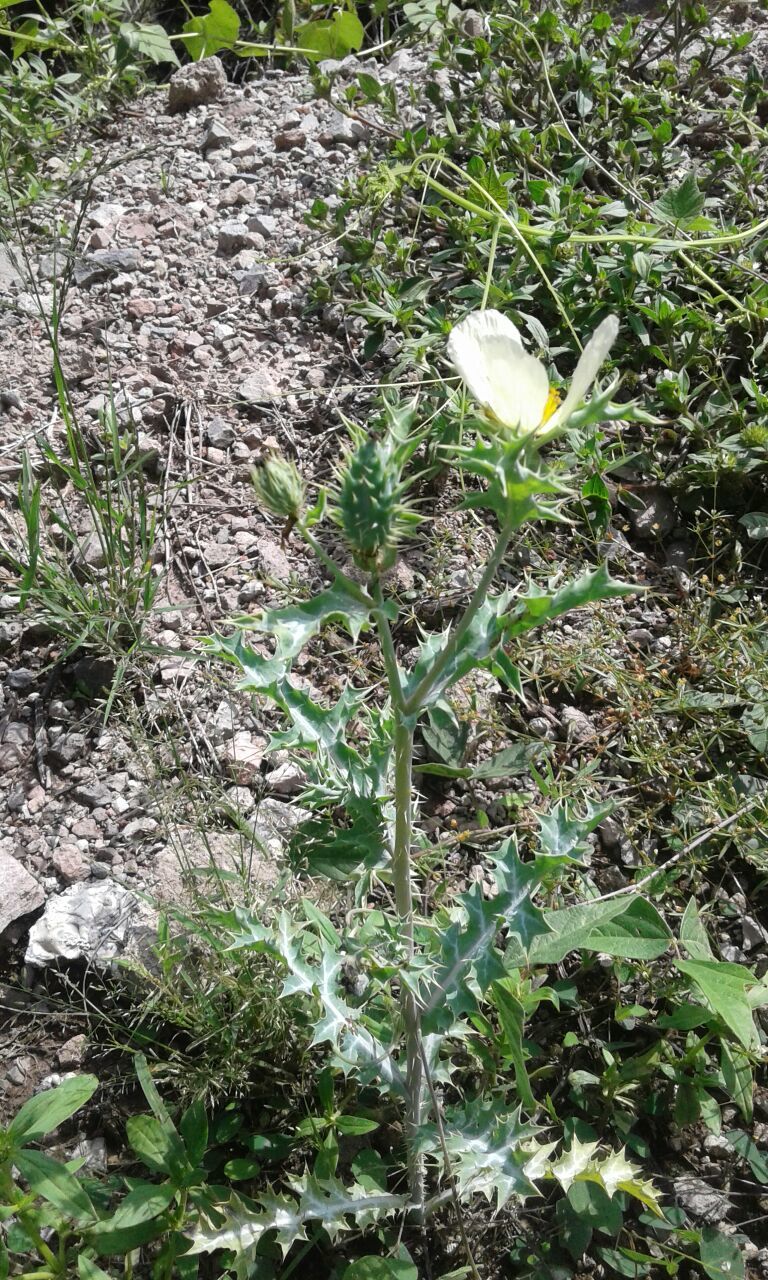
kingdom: Plantae
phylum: Tracheophyta
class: Magnoliopsida
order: Ranunculales
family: Papaveraceae
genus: Argemone
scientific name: Argemone ochroleuca
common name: White-flower mexican-poppy
